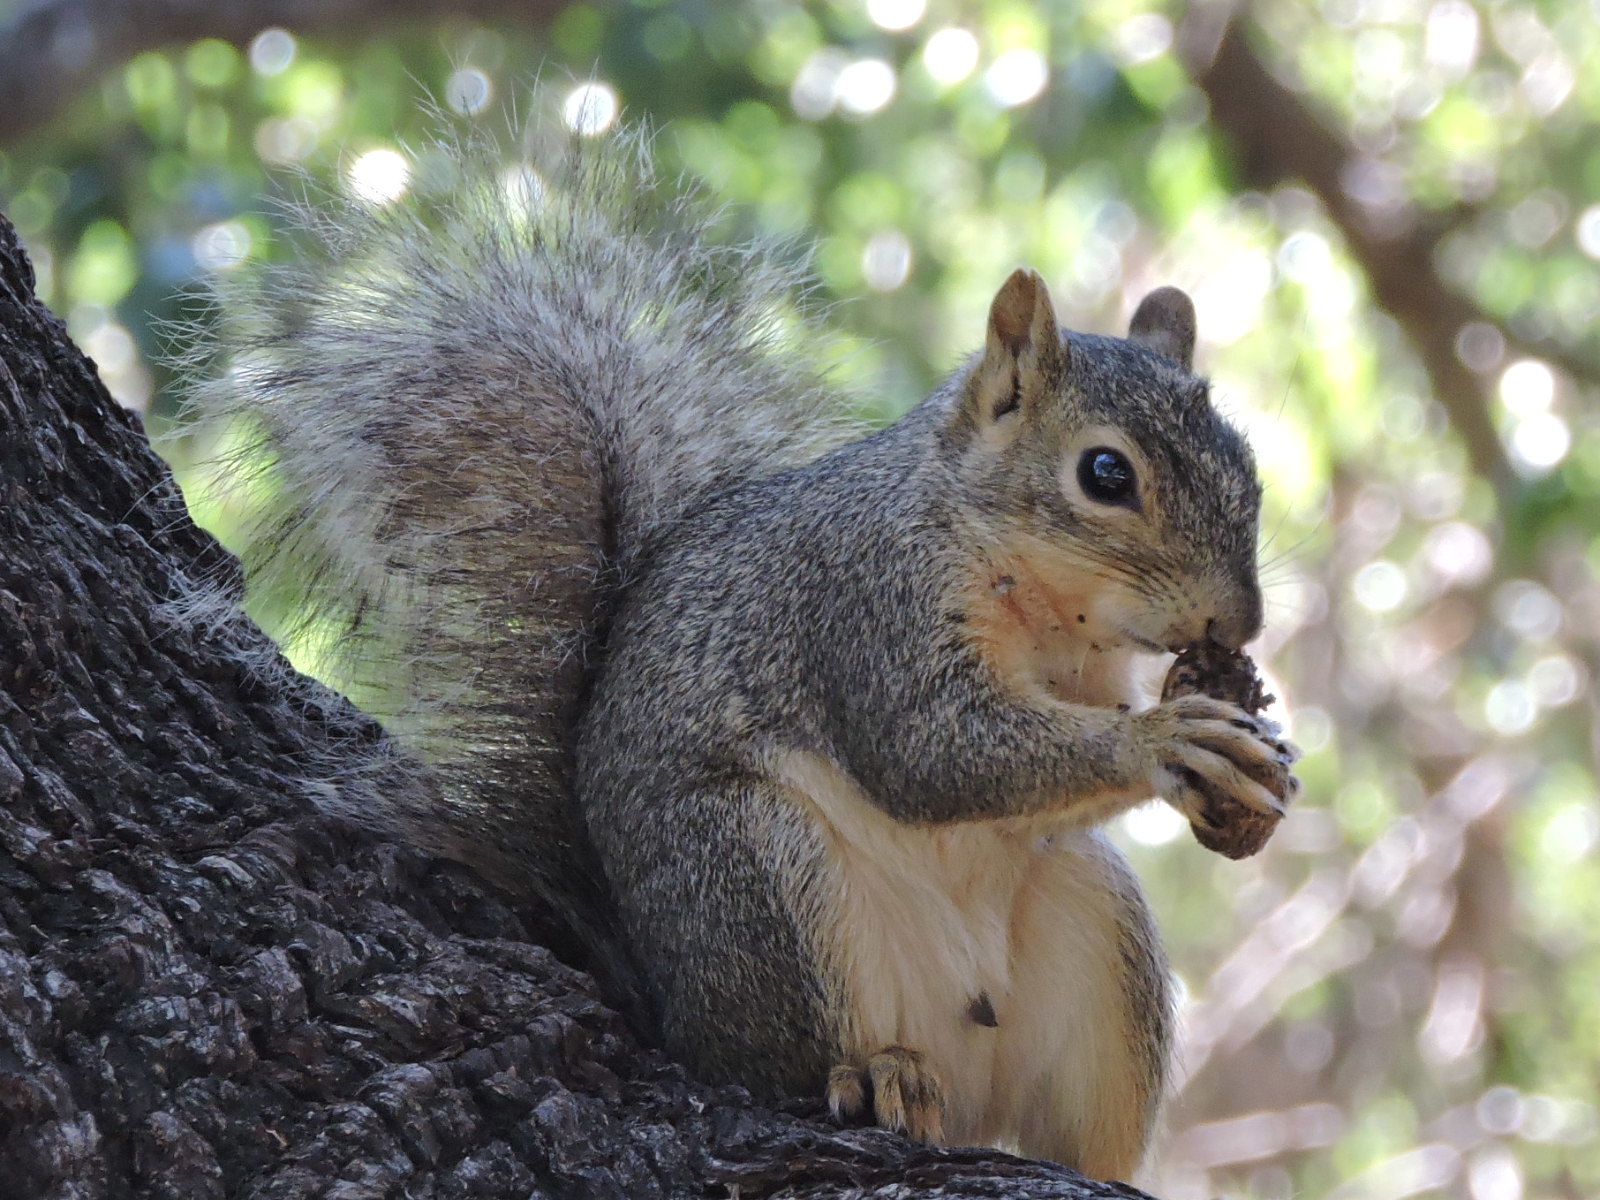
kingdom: Animalia
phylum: Chordata
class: Mammalia
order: Rodentia
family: Sciuridae
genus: Sciurus
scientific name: Sciurus niger
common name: Fox squirrel
